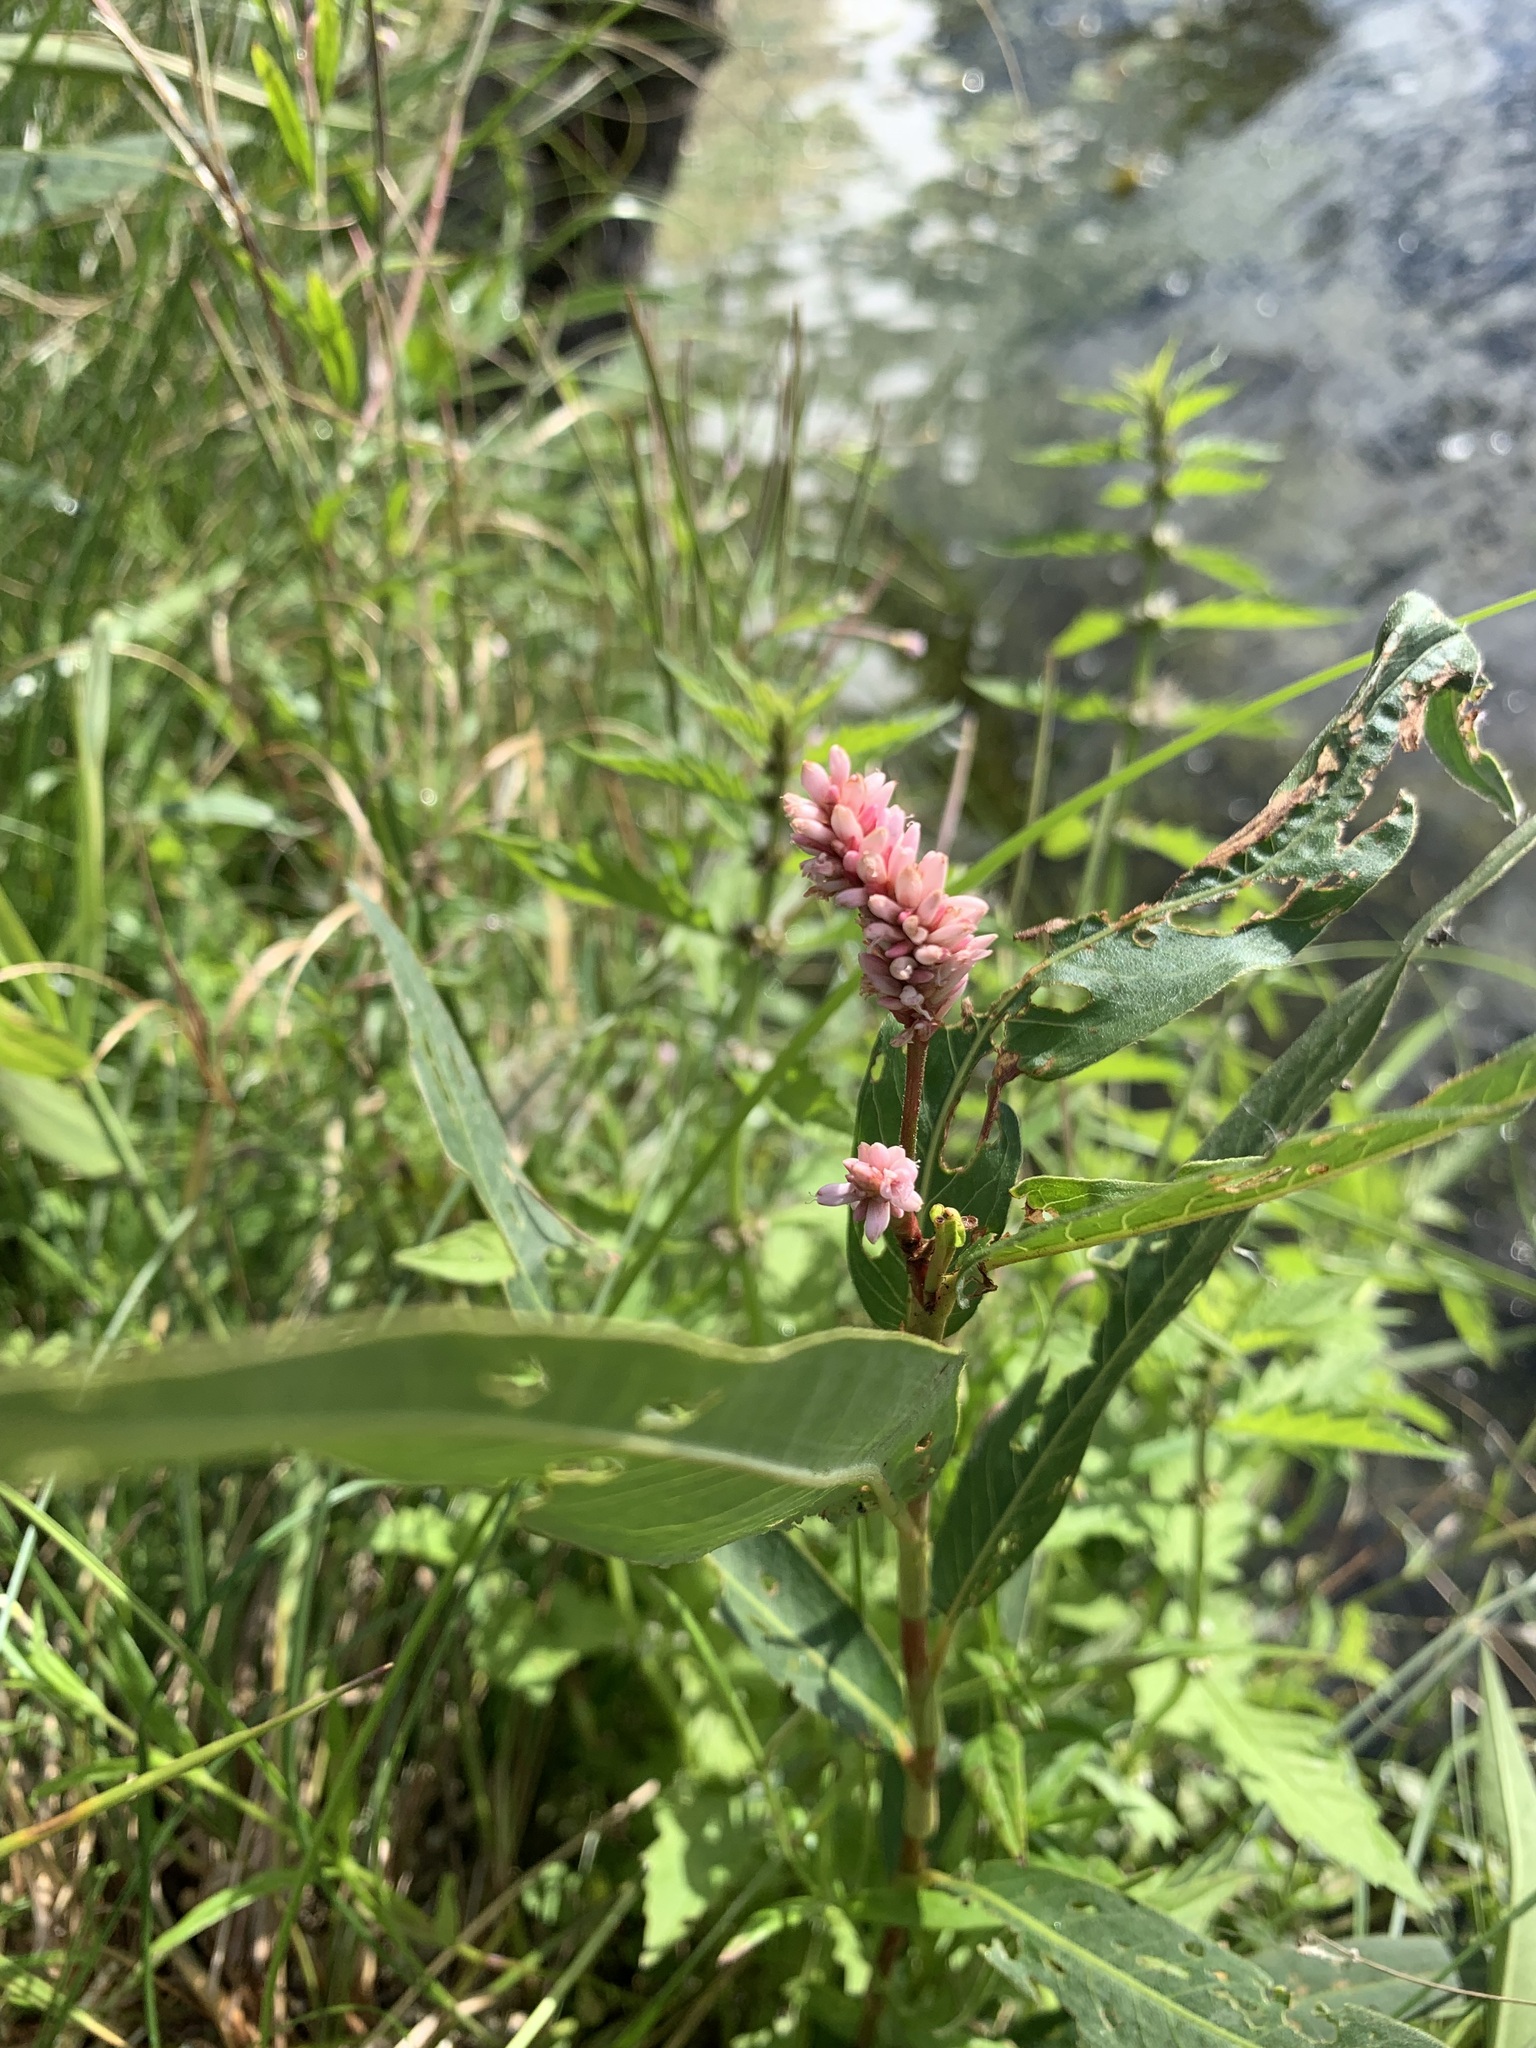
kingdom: Plantae
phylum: Tracheophyta
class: Magnoliopsida
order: Caryophyllales
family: Polygonaceae
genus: Persicaria
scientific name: Persicaria amphibia
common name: Amphibious bistort
